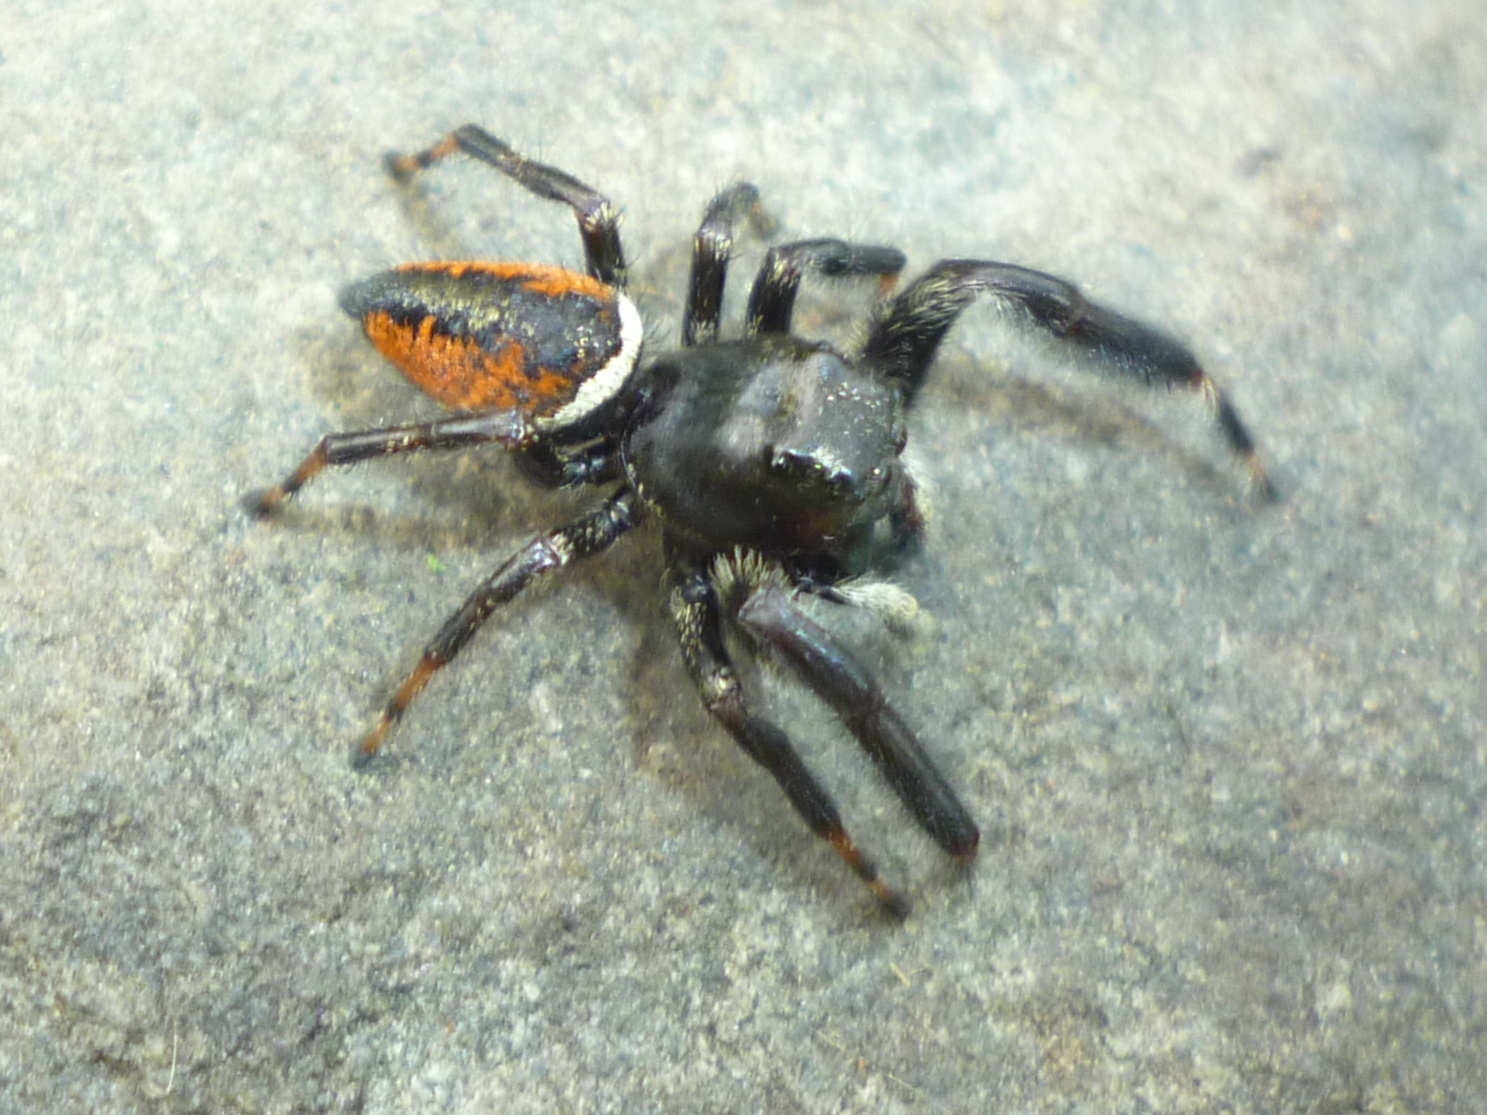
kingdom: Animalia
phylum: Arthropoda
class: Arachnida
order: Araneae
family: Salticidae
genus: Phidippus
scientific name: Phidippus clarus
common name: Brilliant jumping spider
